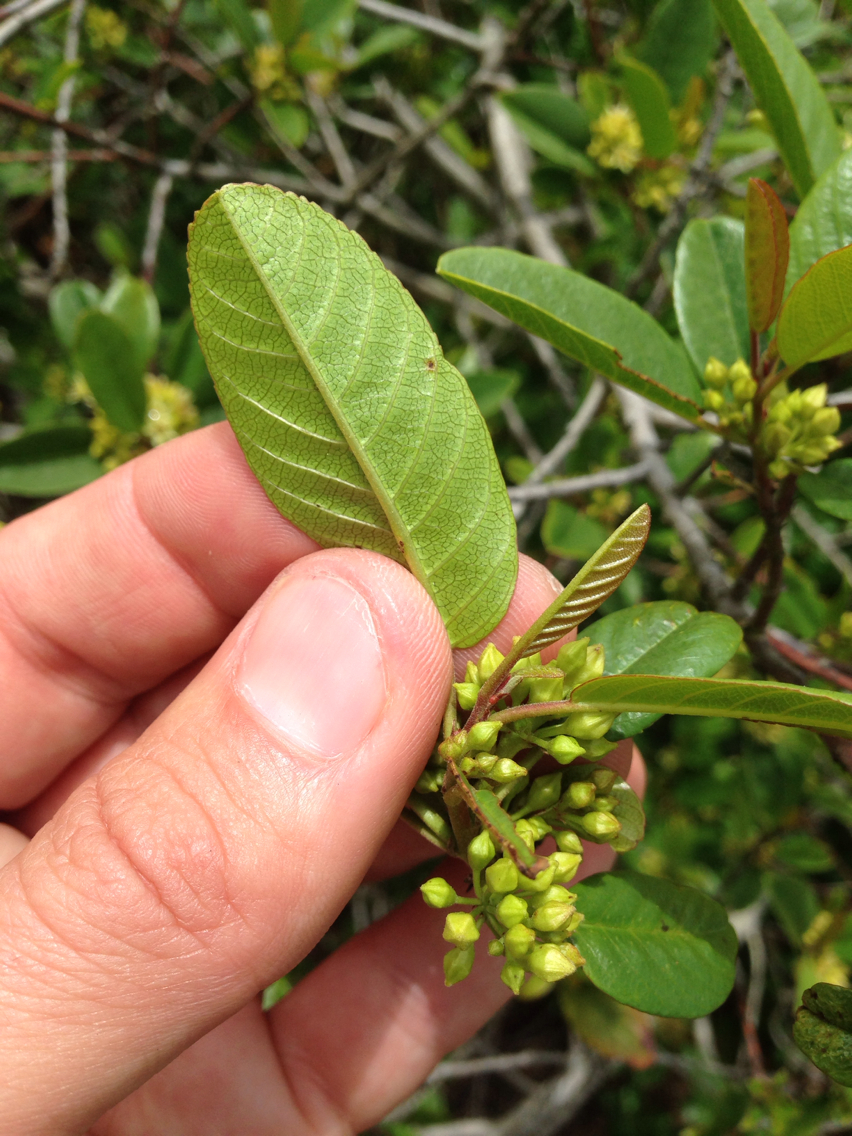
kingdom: Plantae
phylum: Tracheophyta
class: Magnoliopsida
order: Rosales
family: Rhamnaceae
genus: Frangula
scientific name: Frangula californica
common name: California buckthorn
